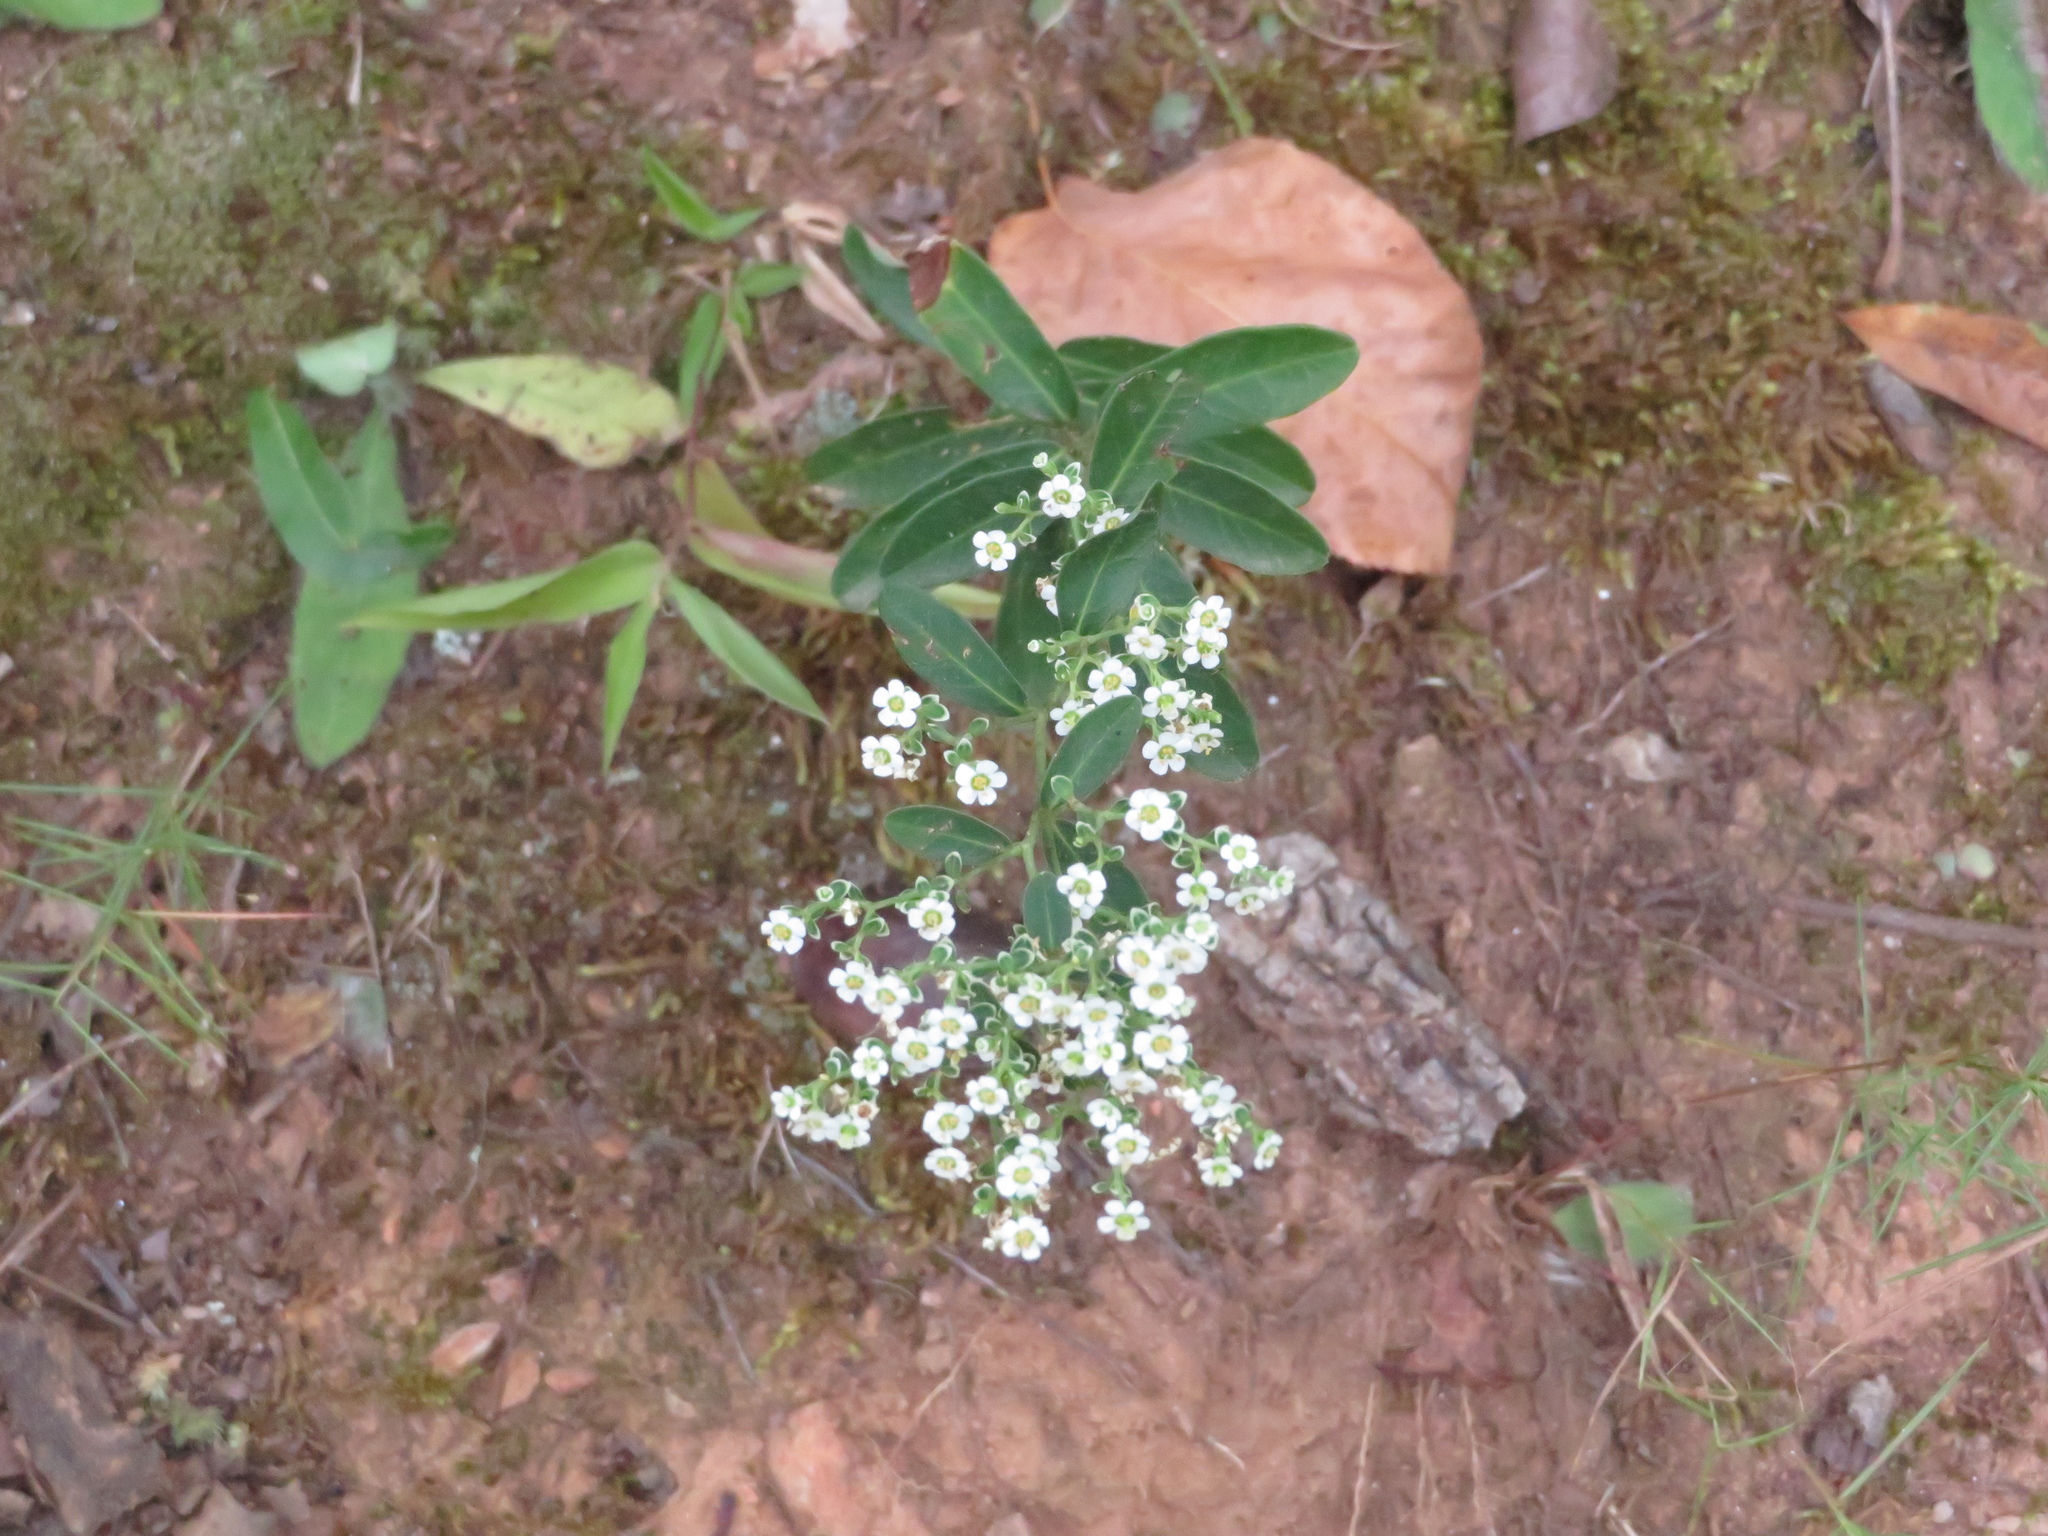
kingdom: Plantae
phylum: Tracheophyta
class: Magnoliopsida
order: Malpighiales
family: Euphorbiaceae
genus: Euphorbia
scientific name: Euphorbia corollata
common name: Flowering spurge
